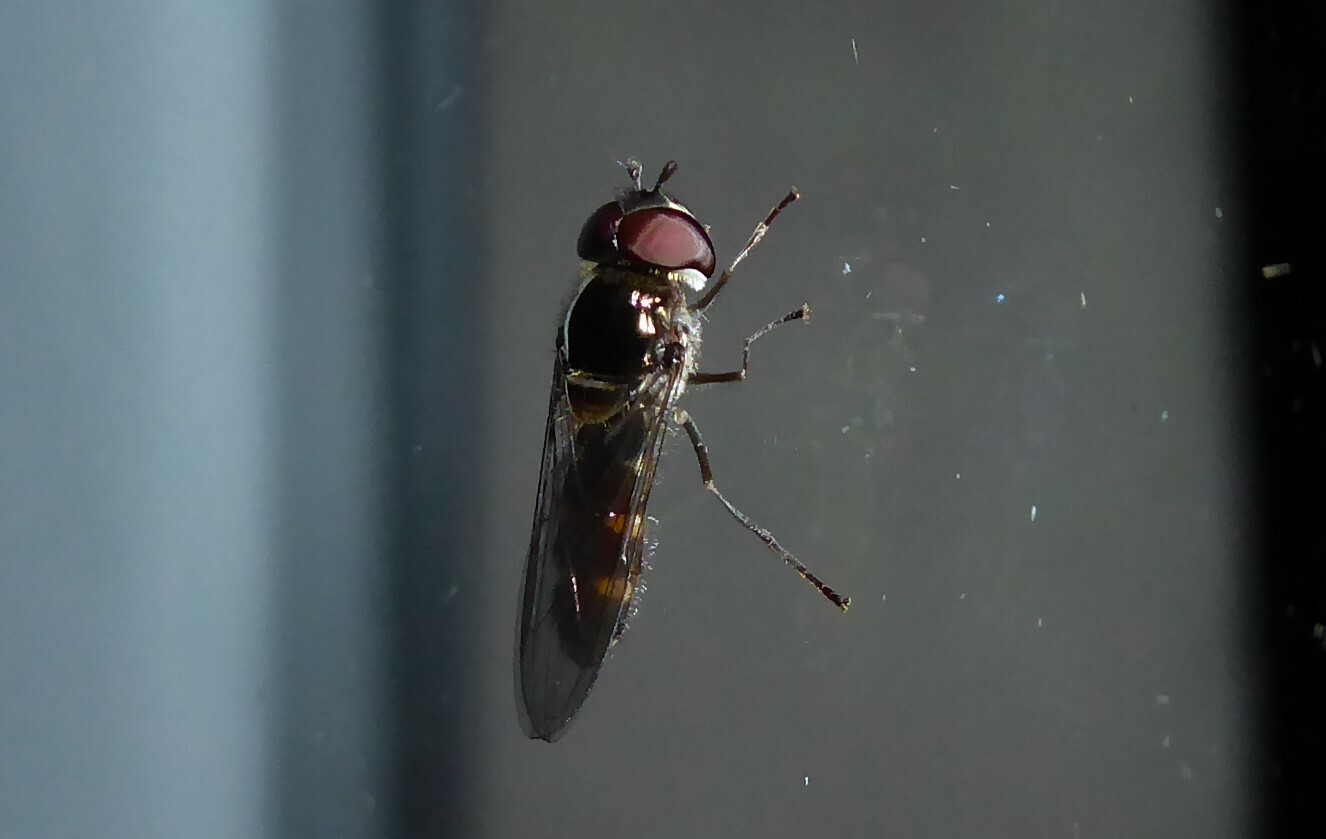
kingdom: Animalia
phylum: Arthropoda
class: Insecta
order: Diptera
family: Syrphidae
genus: Melangyna
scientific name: Melangyna novaezelandiae
